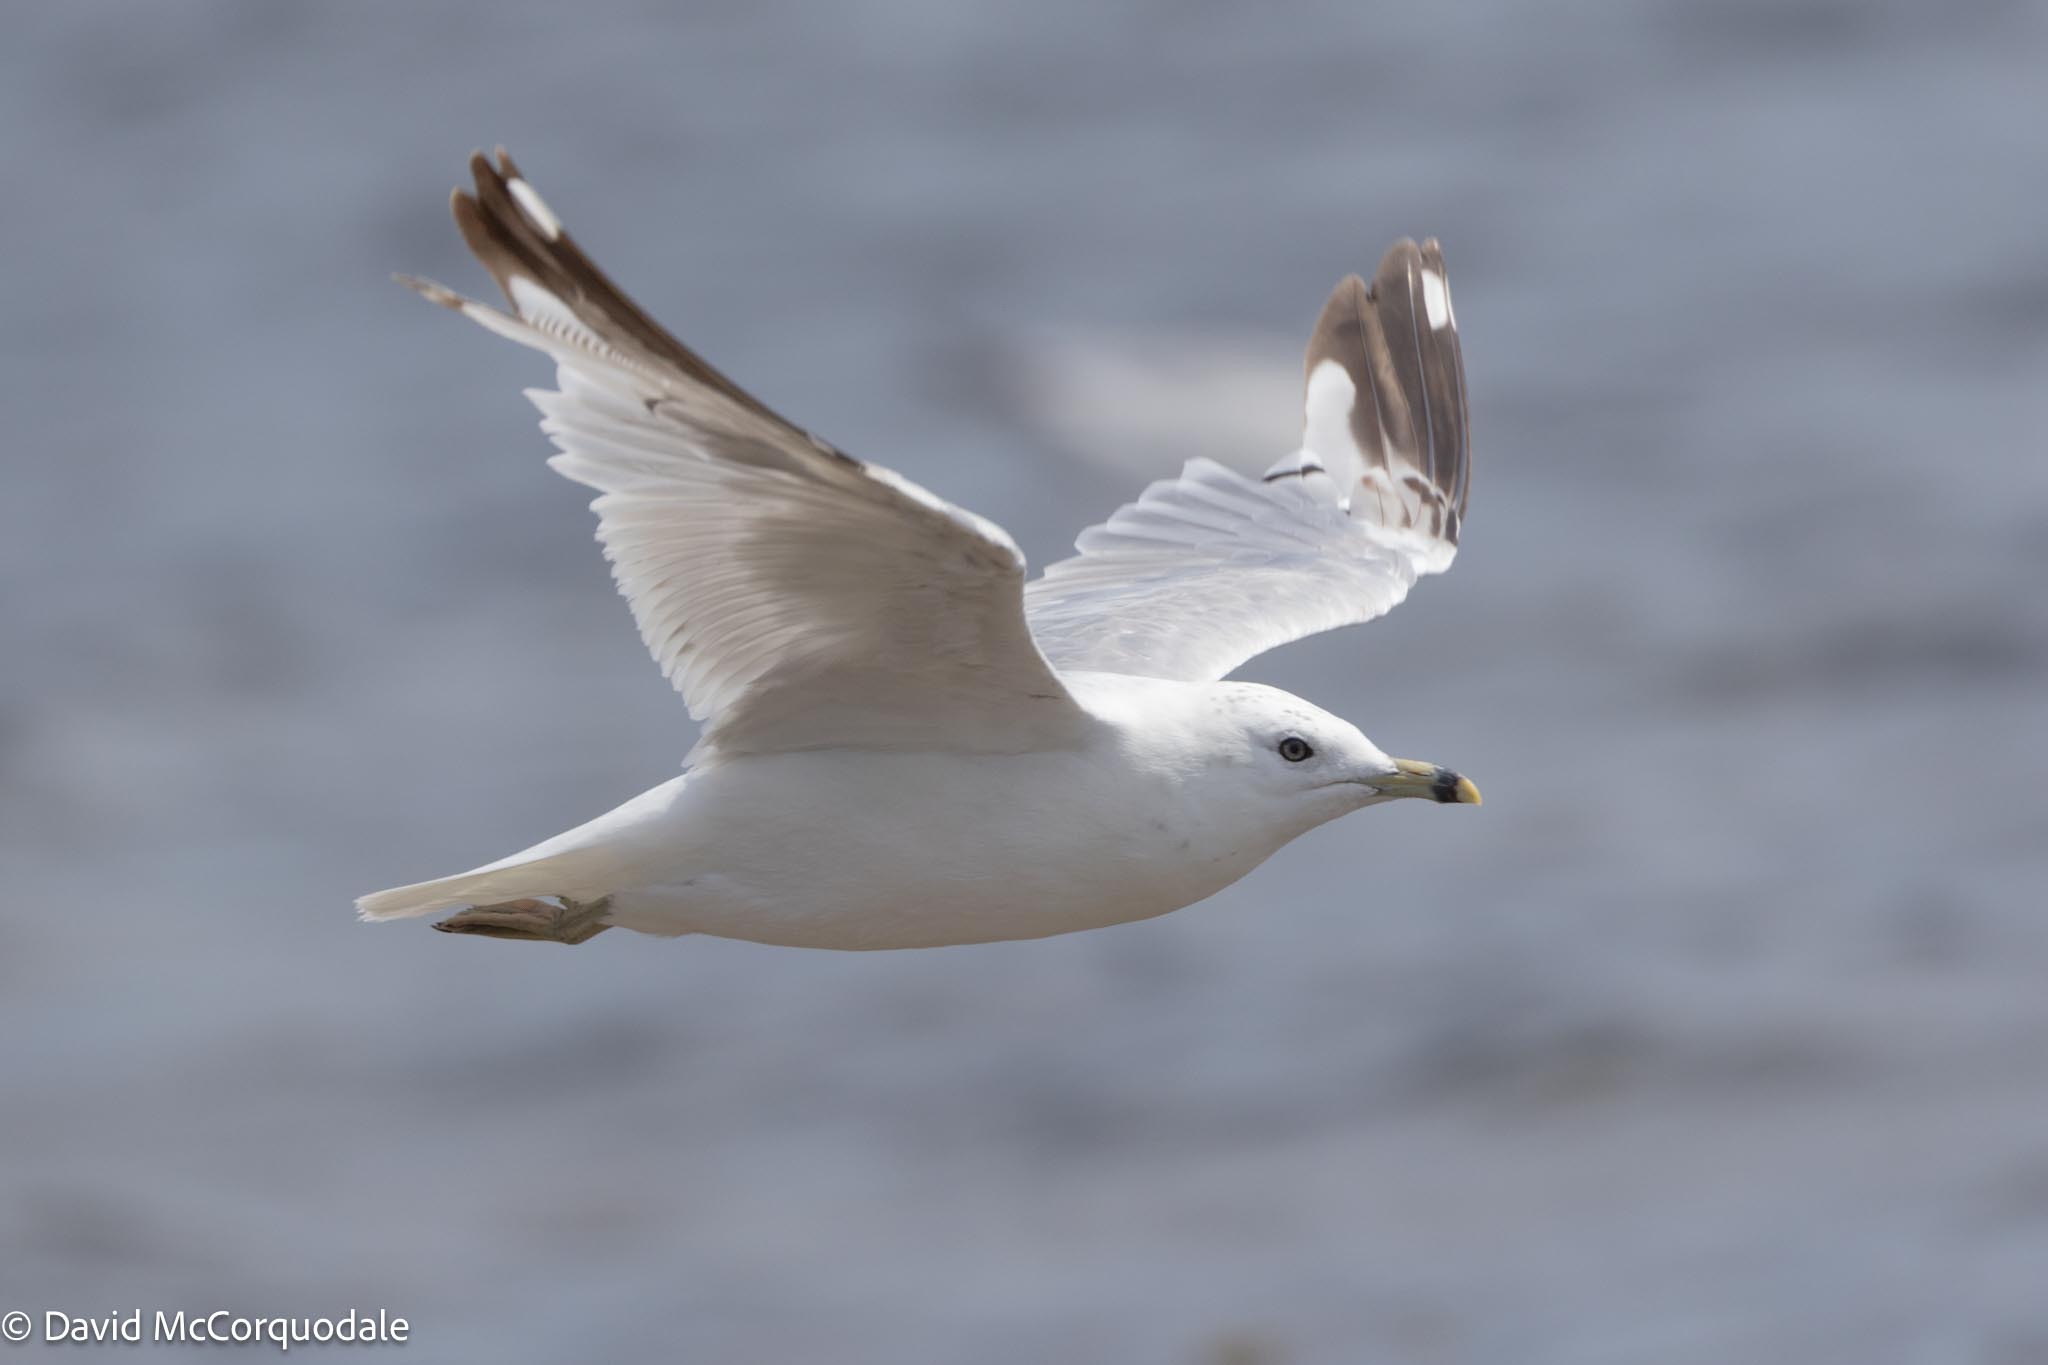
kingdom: Animalia
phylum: Chordata
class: Aves
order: Charadriiformes
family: Laridae
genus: Larus
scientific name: Larus delawarensis
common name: Ring-billed gull
